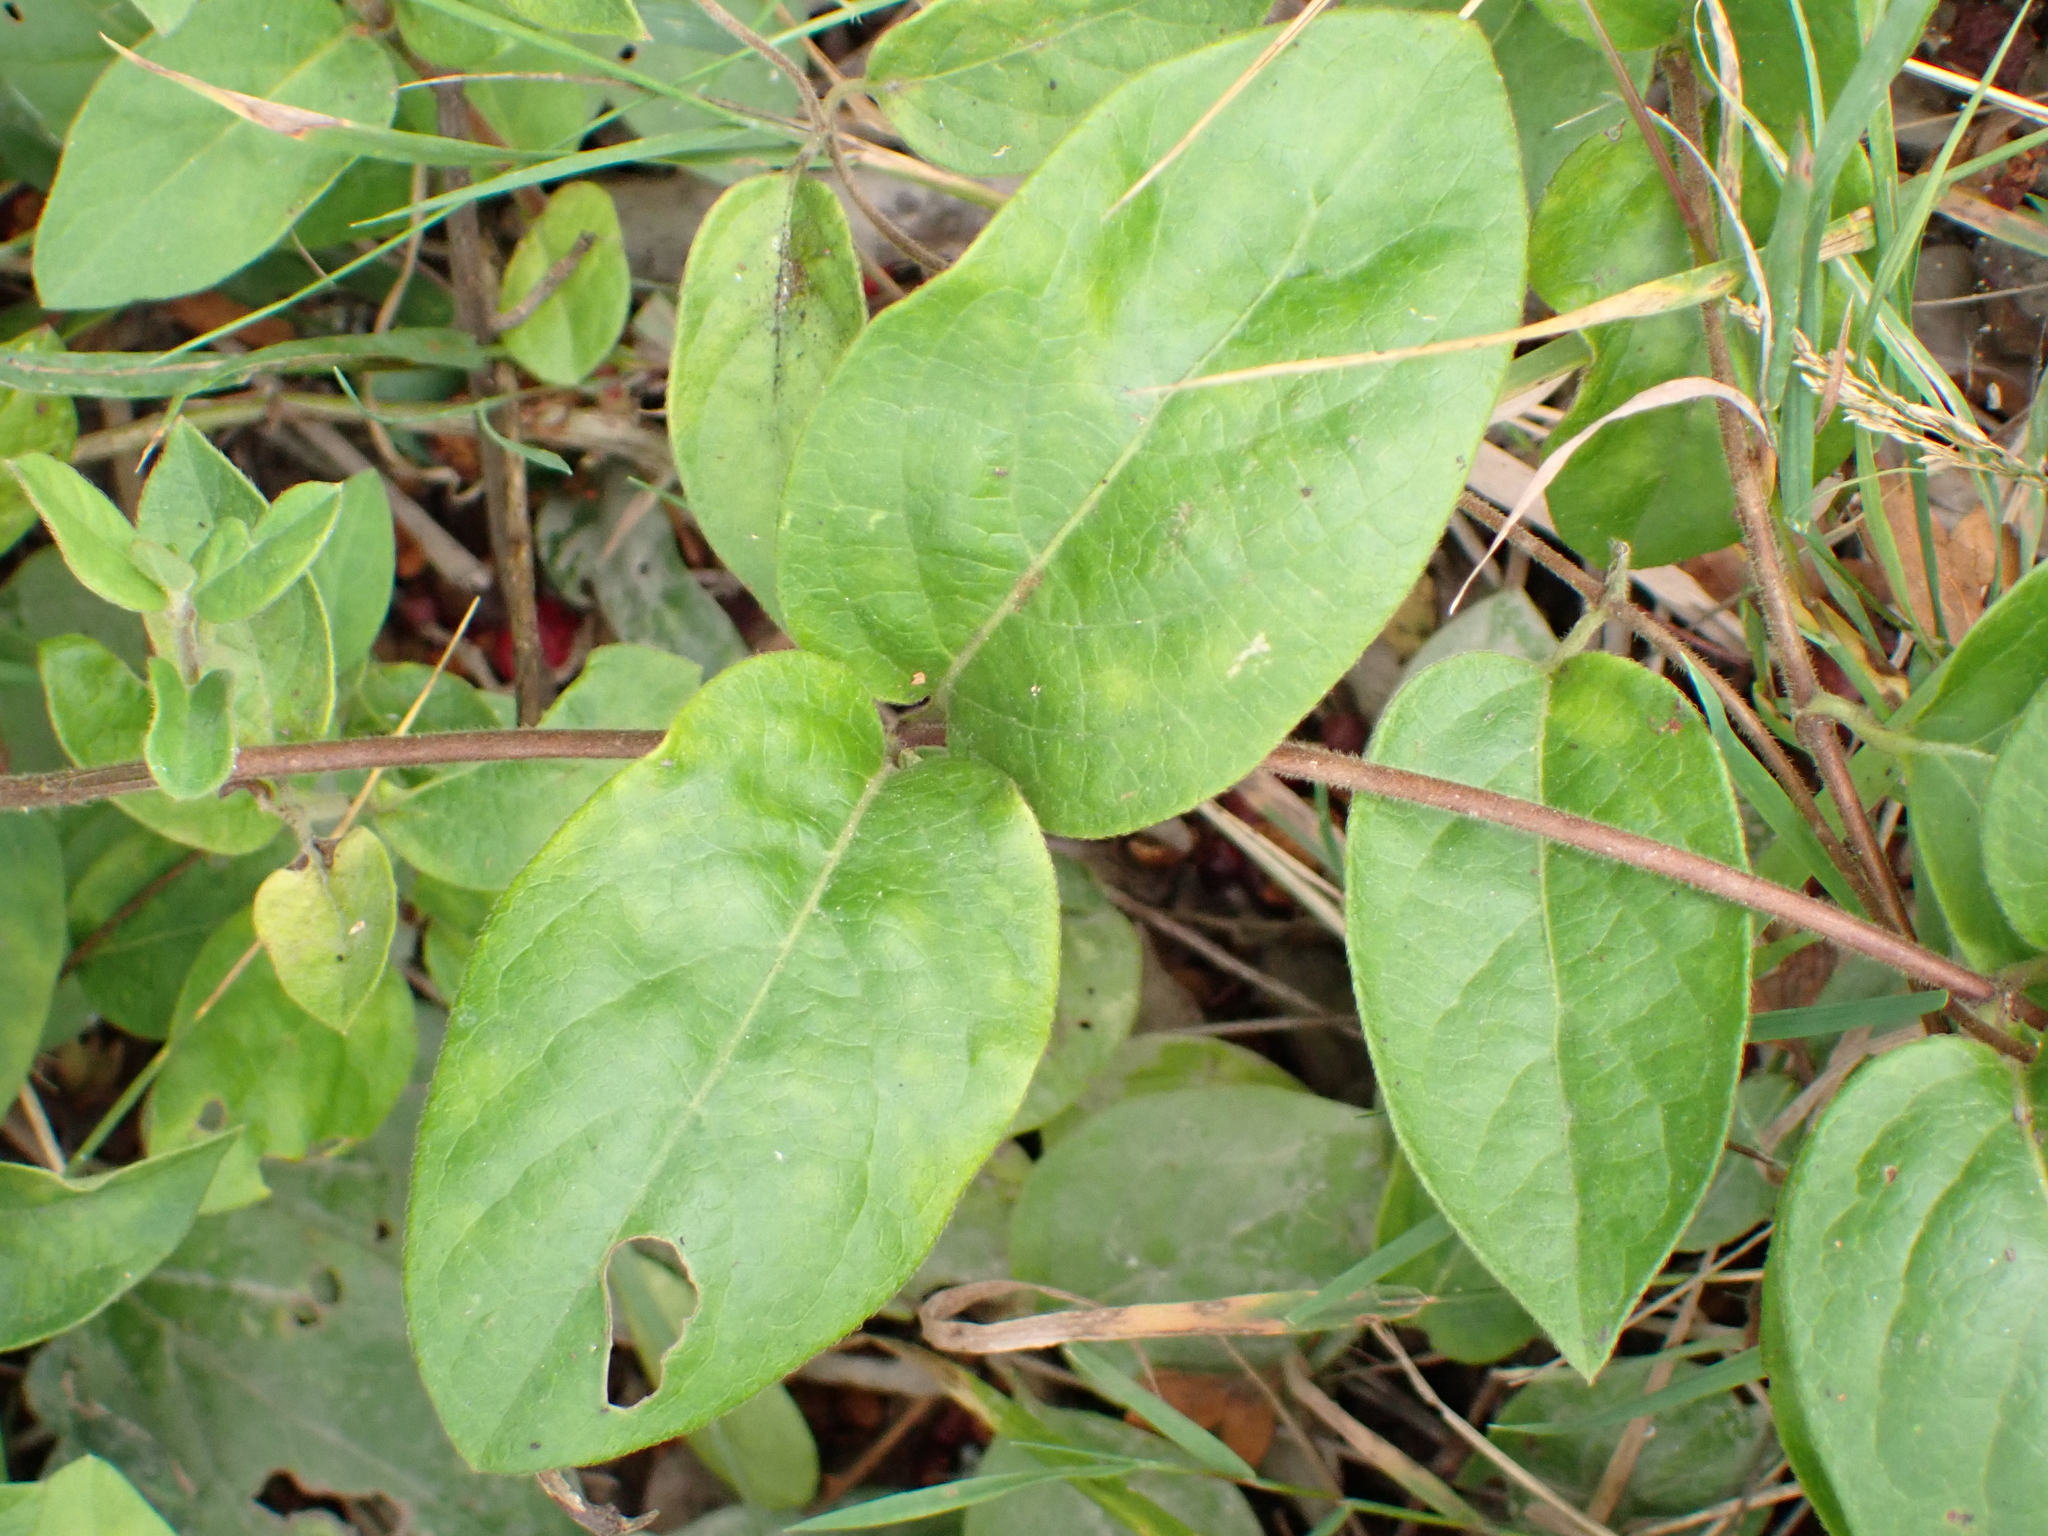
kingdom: Plantae
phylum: Tracheophyta
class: Magnoliopsida
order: Dipsacales
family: Caprifoliaceae
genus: Lonicera
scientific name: Lonicera japonica
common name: Japanese honeysuckle
